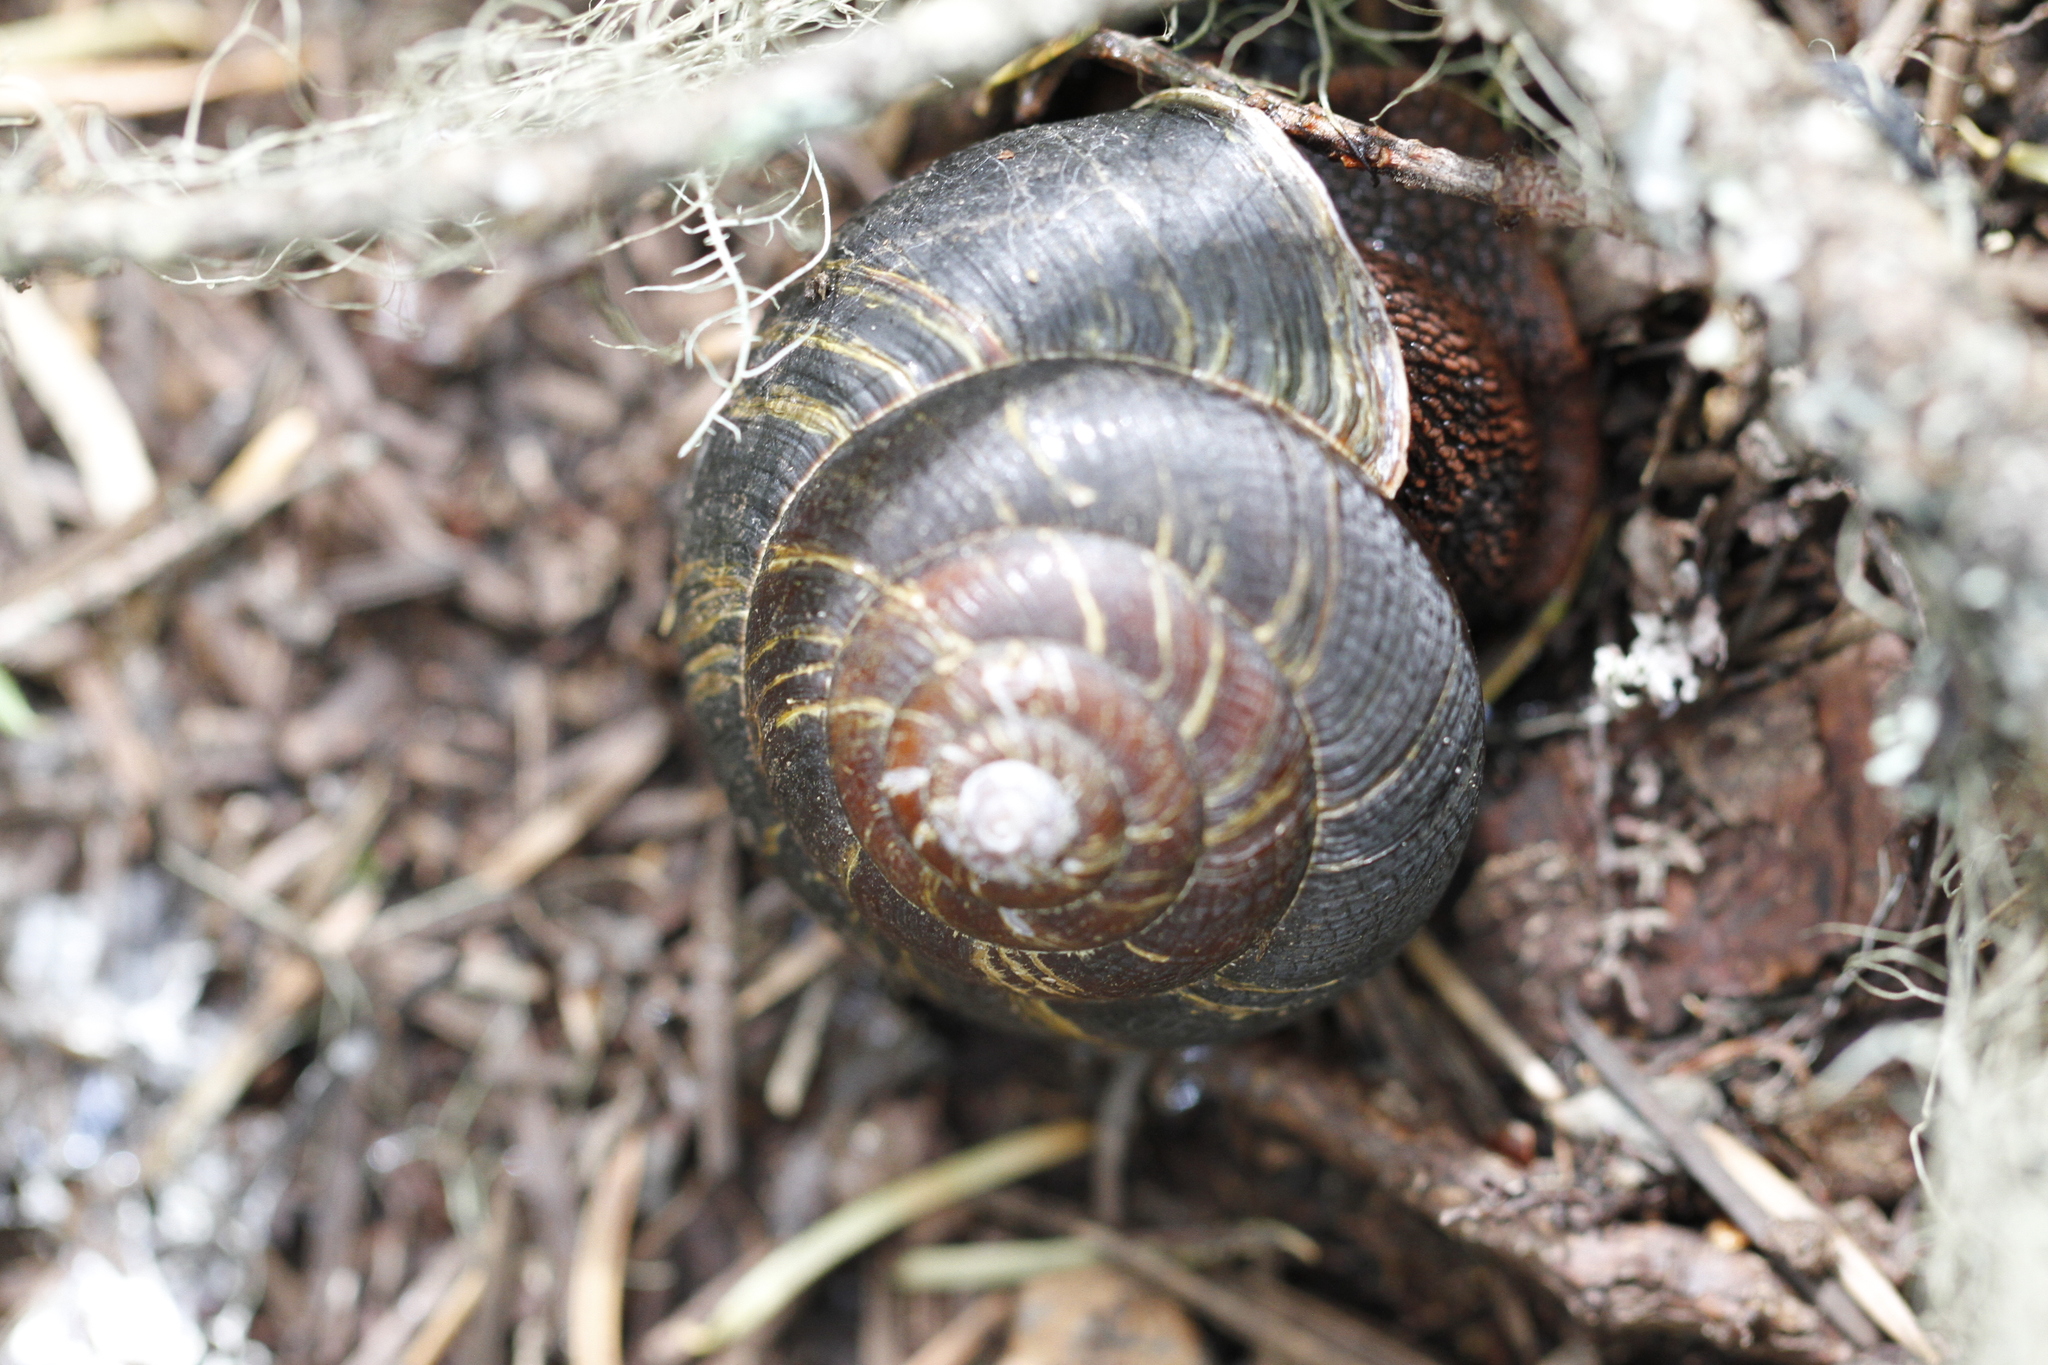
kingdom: Animalia
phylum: Mollusca
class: Gastropoda
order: Stylommatophora
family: Xanthonychidae
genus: Monadenia
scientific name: Monadenia fidelis
